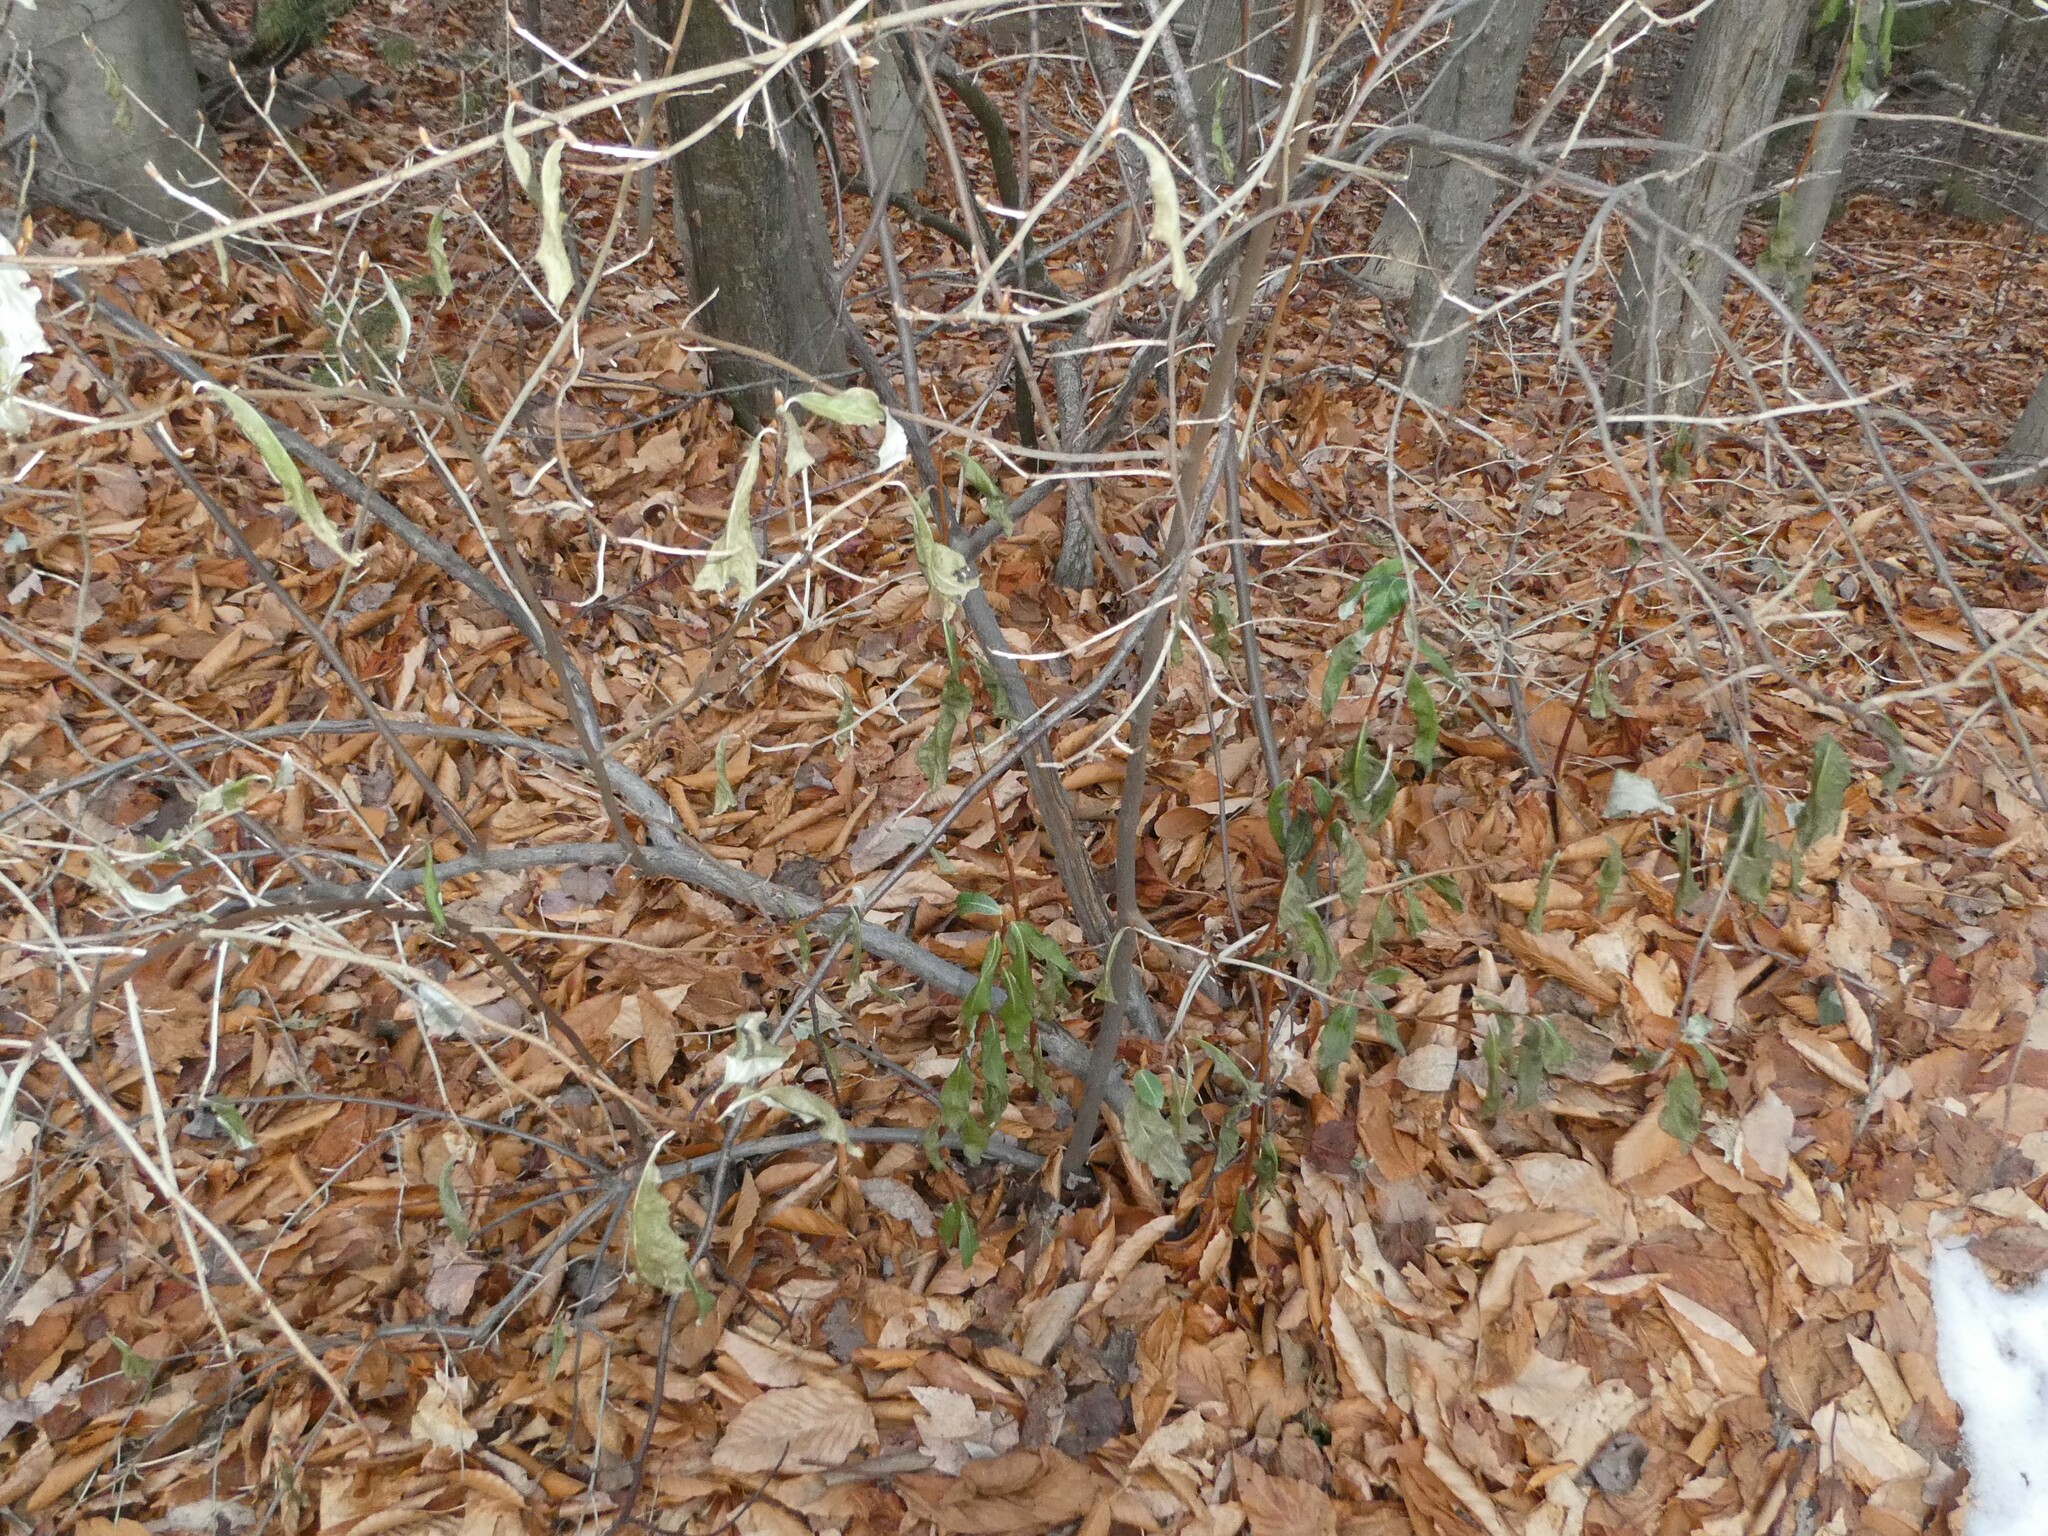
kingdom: Plantae
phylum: Tracheophyta
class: Magnoliopsida
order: Rosales
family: Elaeagnaceae
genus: Elaeagnus
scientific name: Elaeagnus umbellata
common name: Autumn olive
